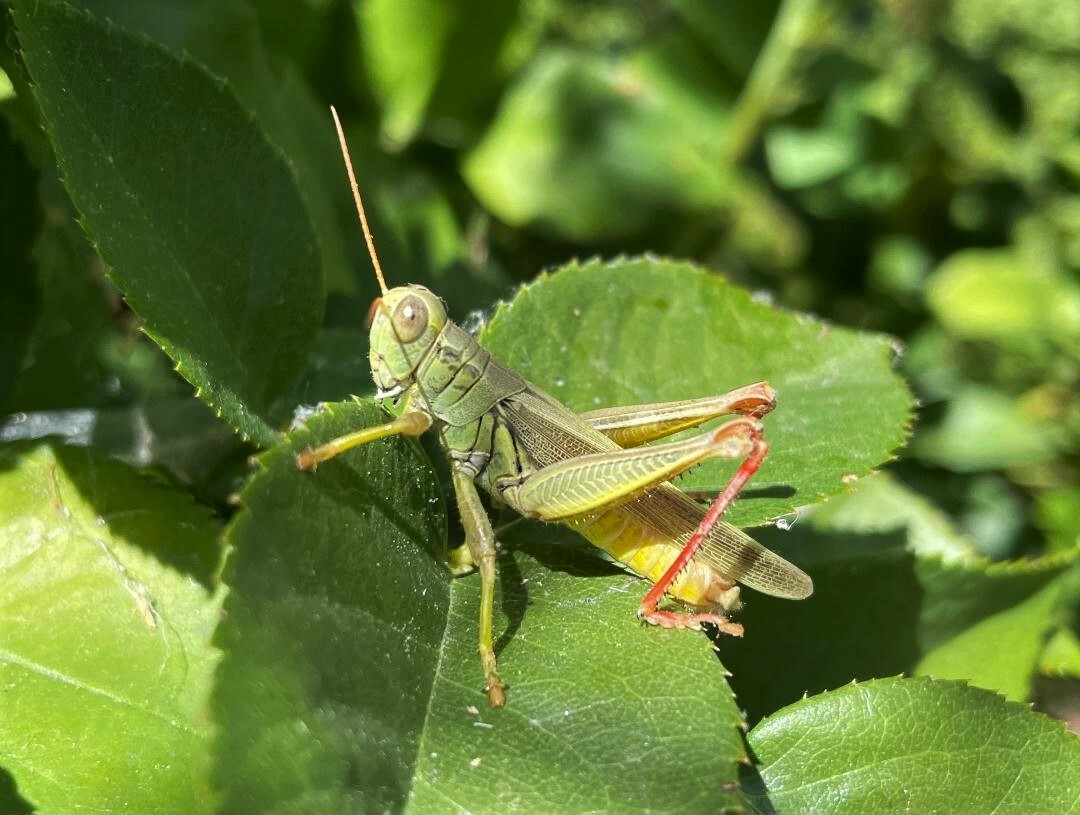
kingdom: Animalia
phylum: Arthropoda
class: Insecta
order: Orthoptera
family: Acrididae
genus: Melanoplus
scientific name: Melanoplus yarrowii
